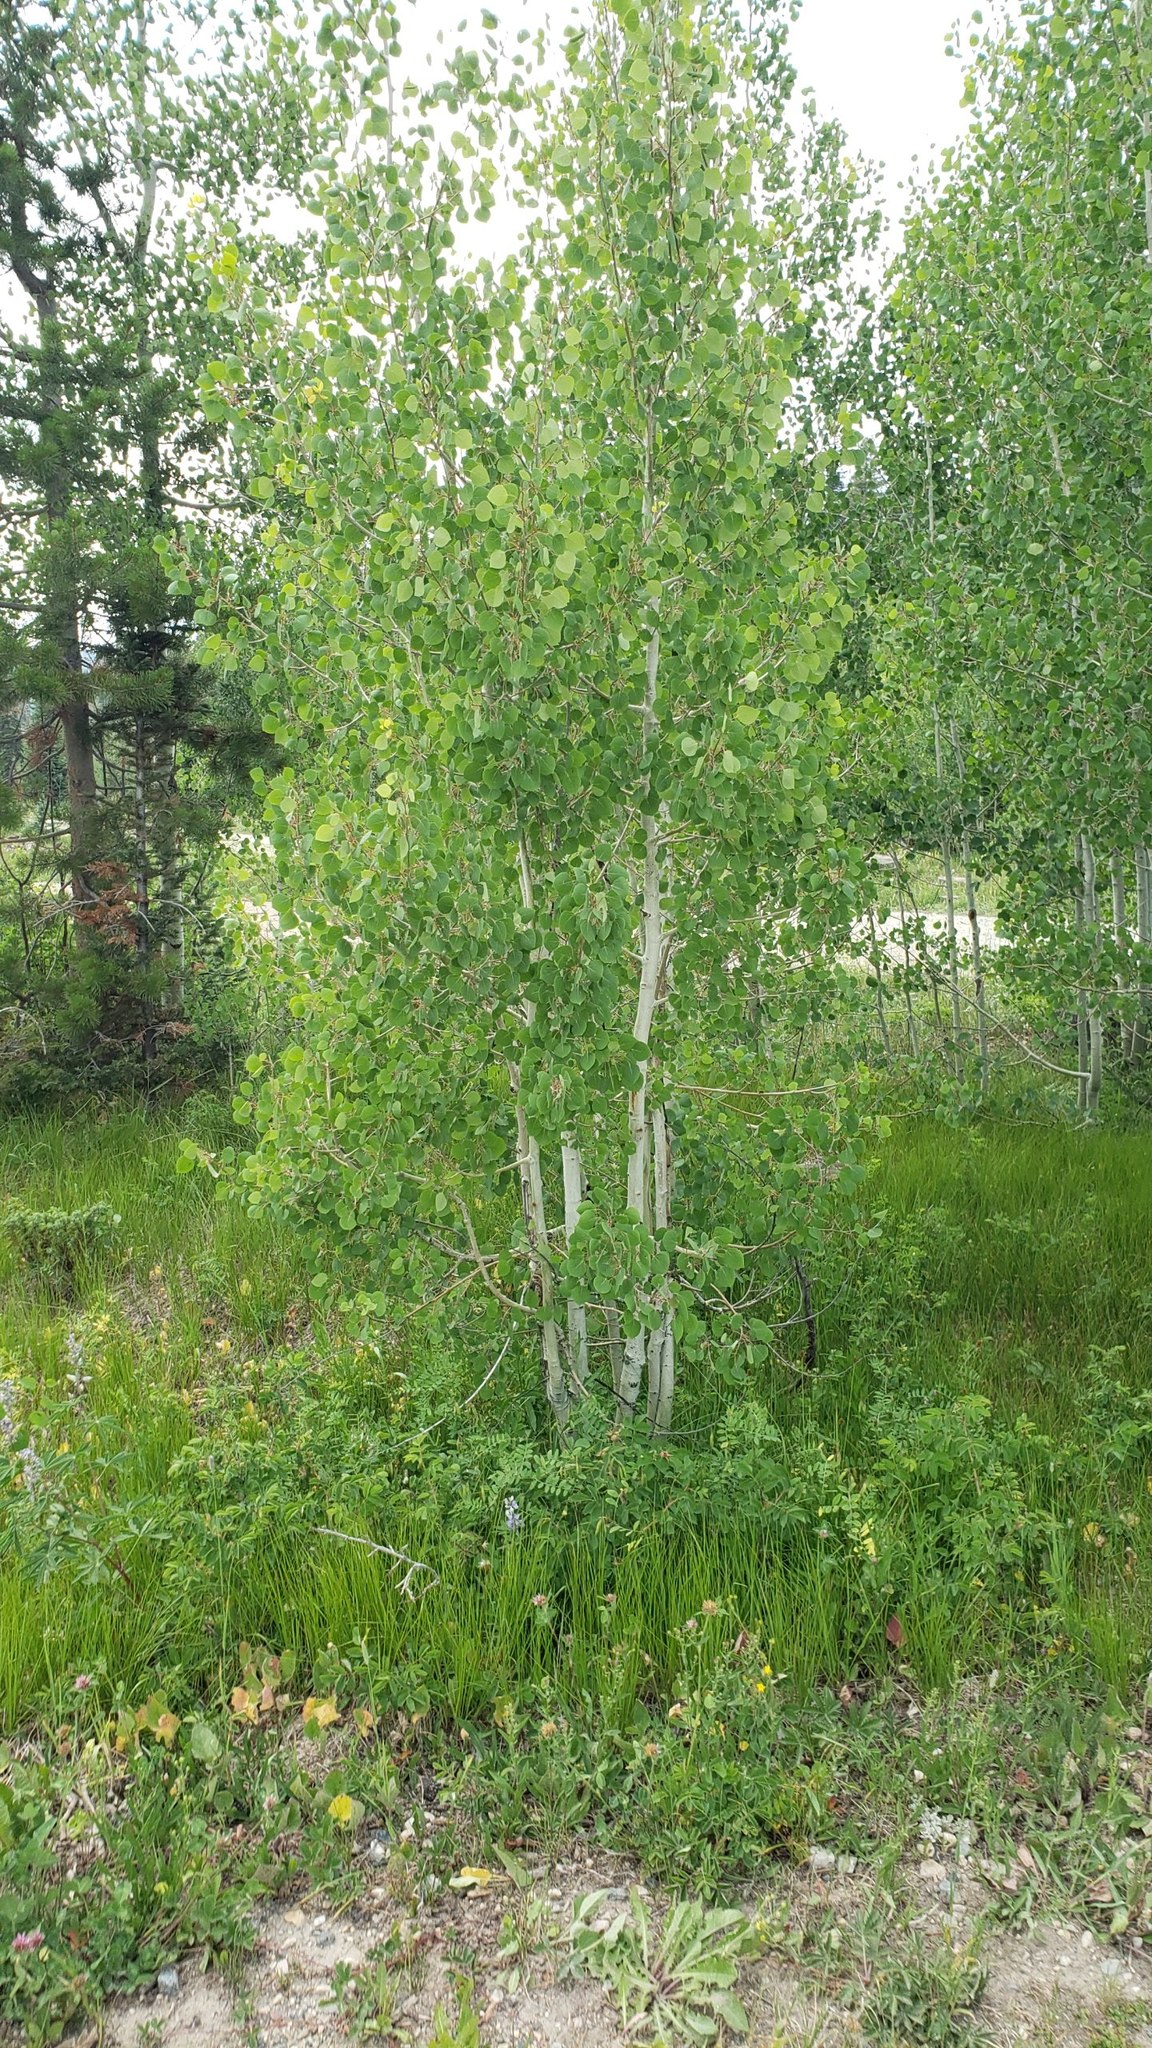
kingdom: Plantae
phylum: Tracheophyta
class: Magnoliopsida
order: Malpighiales
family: Salicaceae
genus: Populus
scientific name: Populus tremuloides
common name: Quaking aspen
